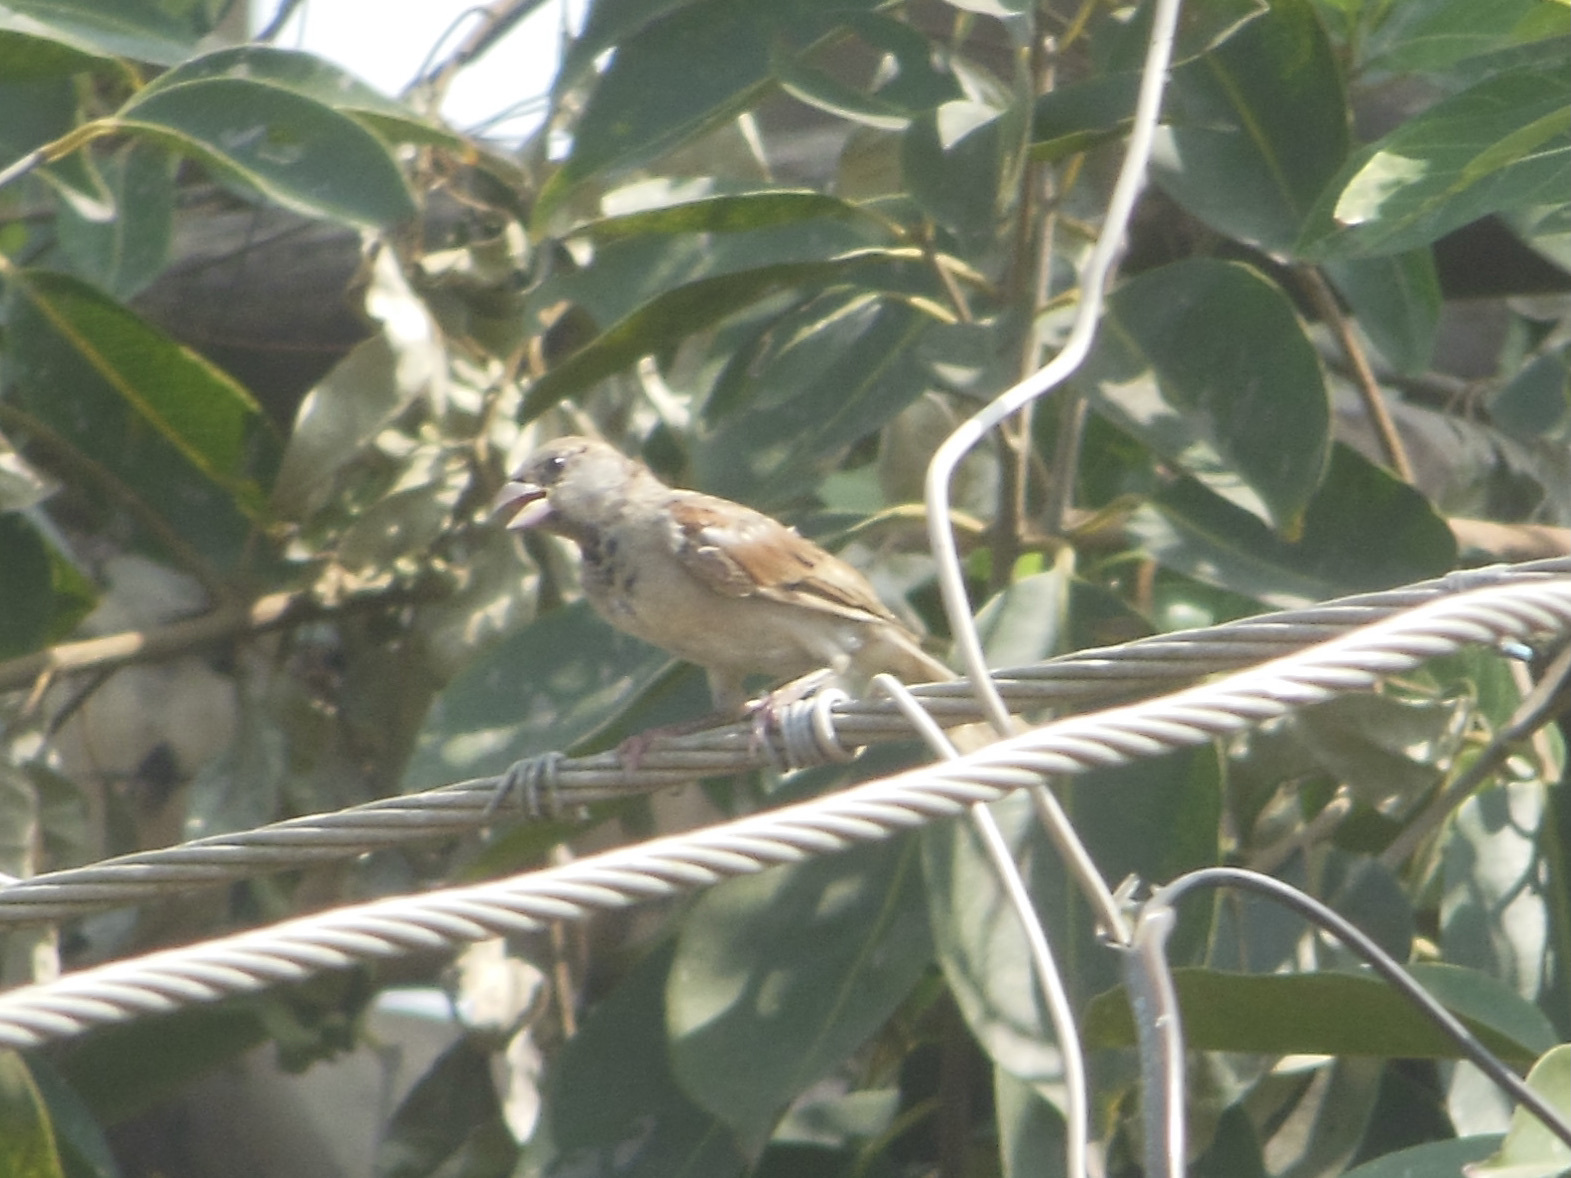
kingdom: Animalia
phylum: Chordata
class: Aves
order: Passeriformes
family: Passeridae
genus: Passer
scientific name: Passer domesticus
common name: House sparrow
